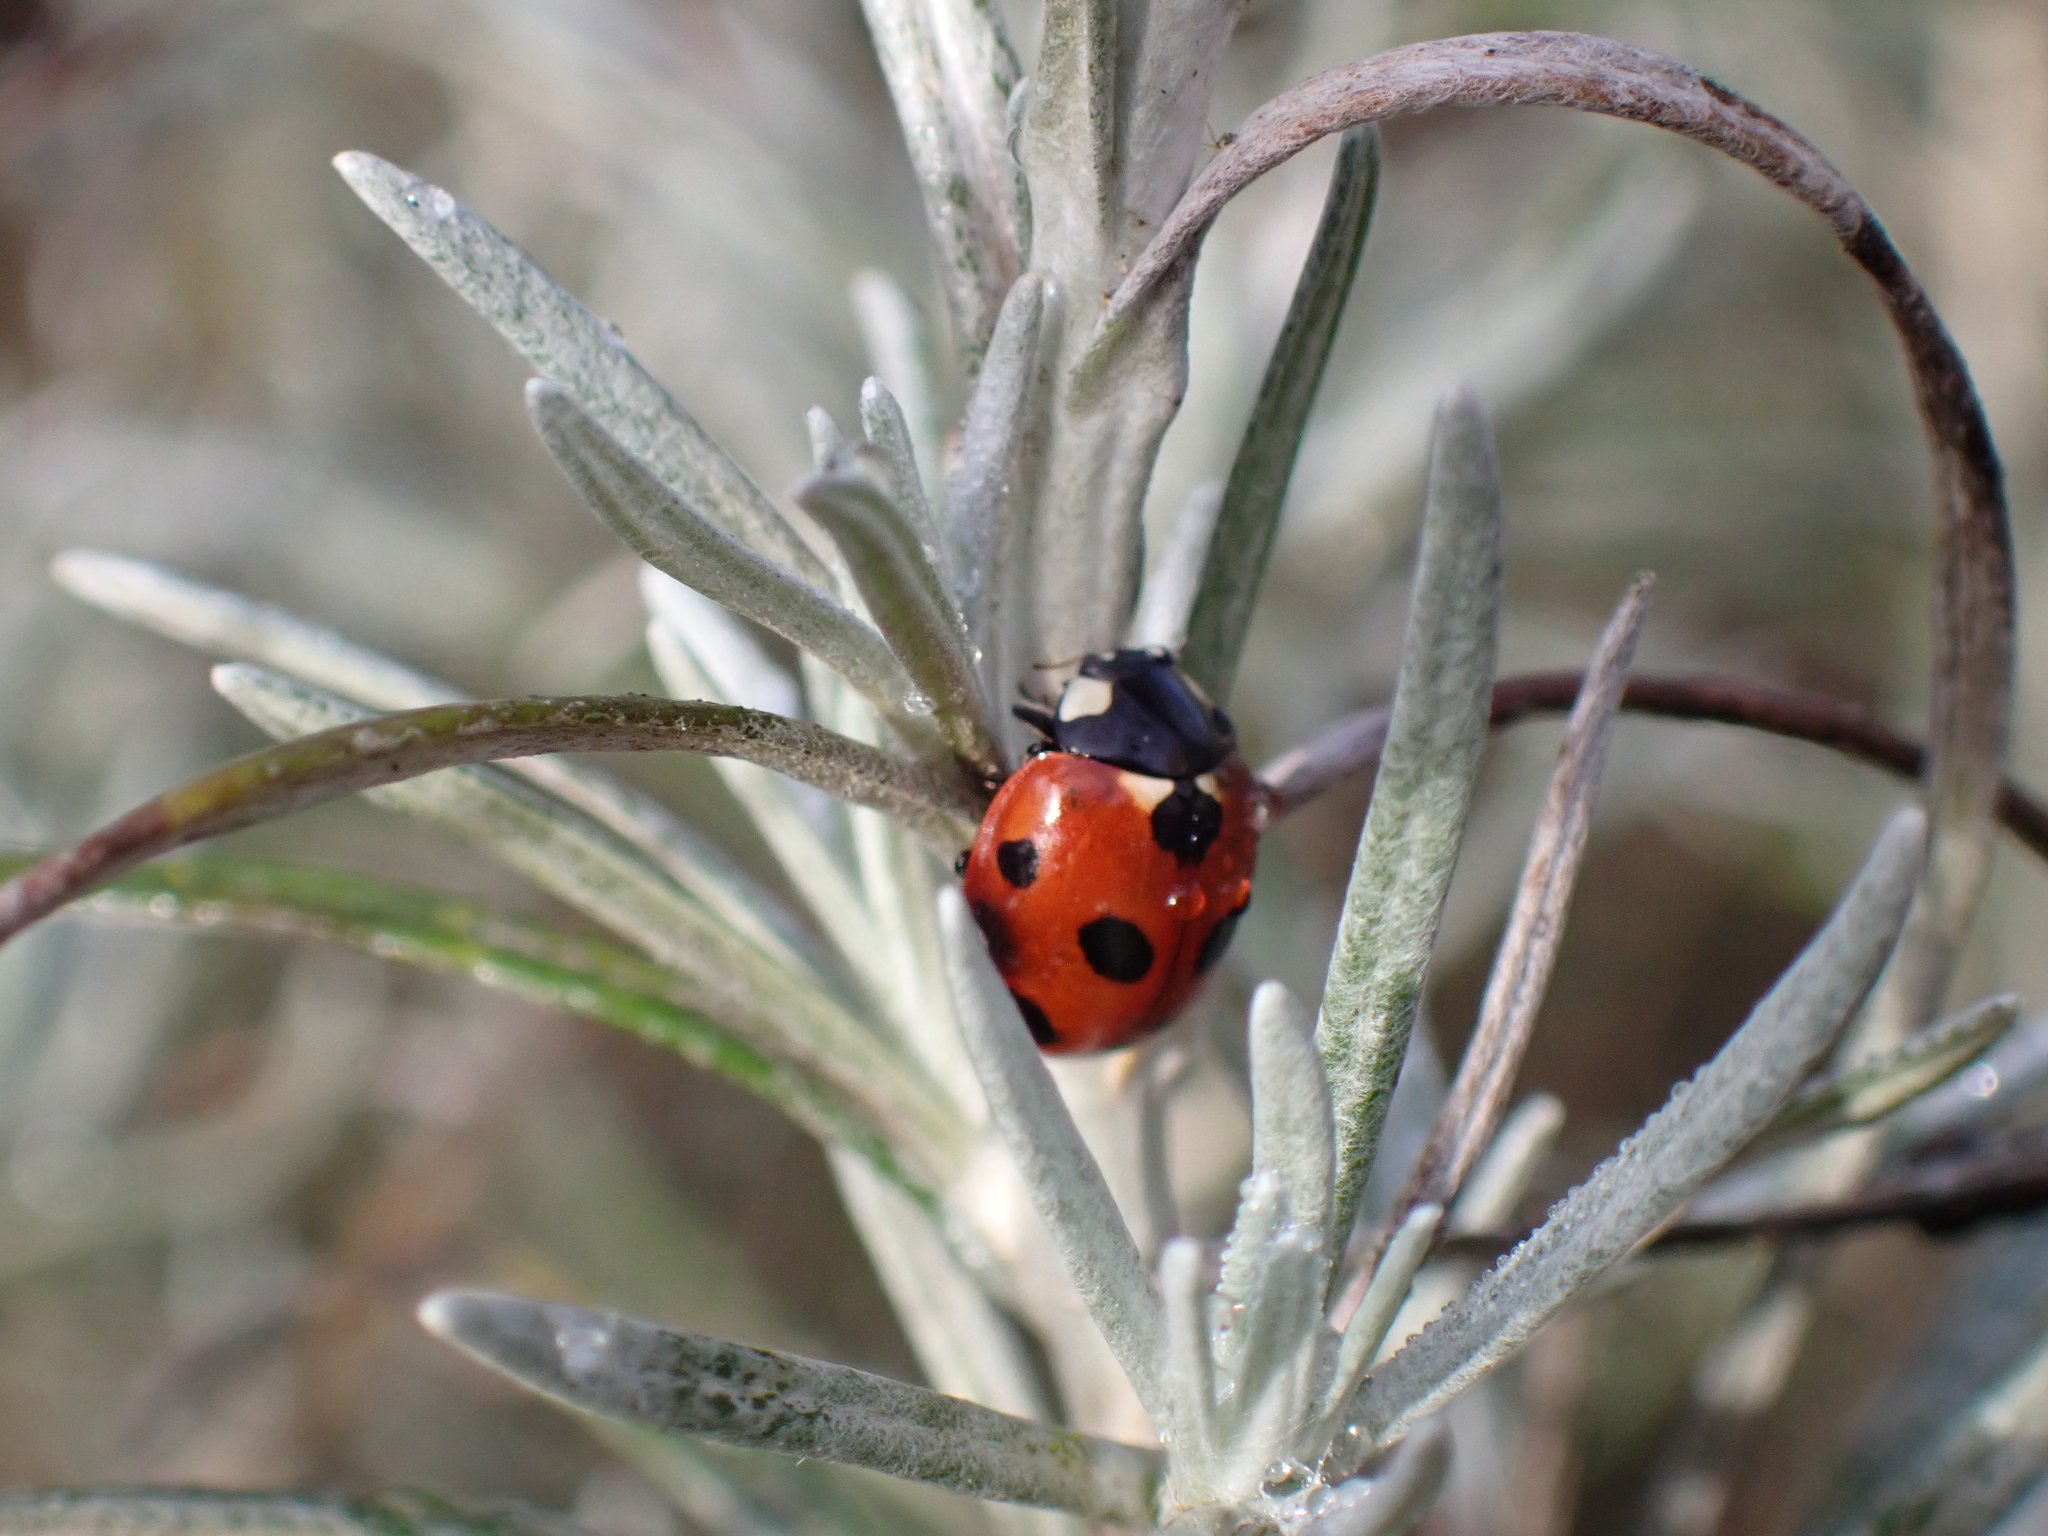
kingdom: Animalia
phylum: Arthropoda
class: Insecta
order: Coleoptera
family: Coccinellidae
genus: Coccinella
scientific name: Coccinella septempunctata
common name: Sevenspotted lady beetle
